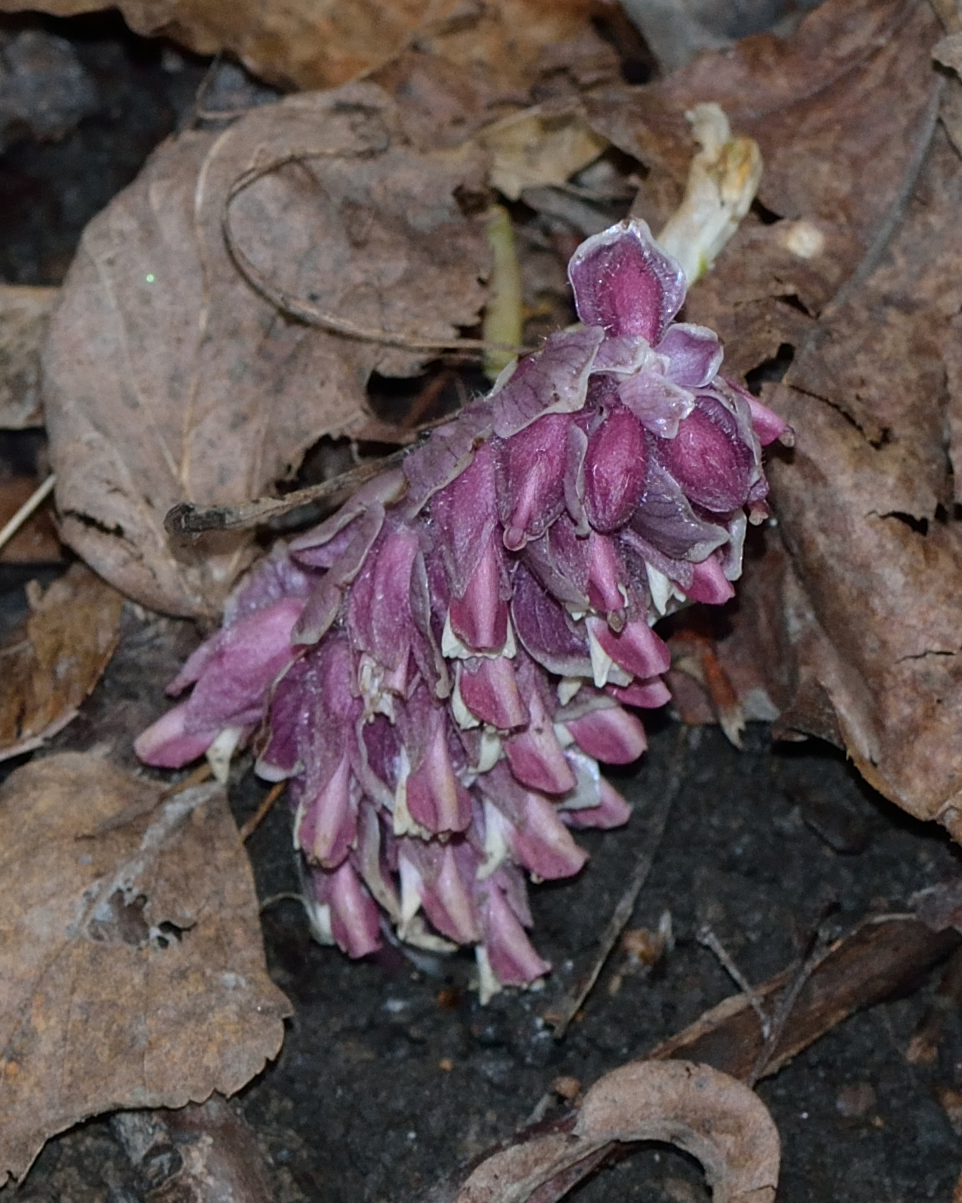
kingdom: Plantae
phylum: Tracheophyta
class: Magnoliopsida
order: Lamiales
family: Orobanchaceae
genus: Lathraea
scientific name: Lathraea squamaria
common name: Toothwort
